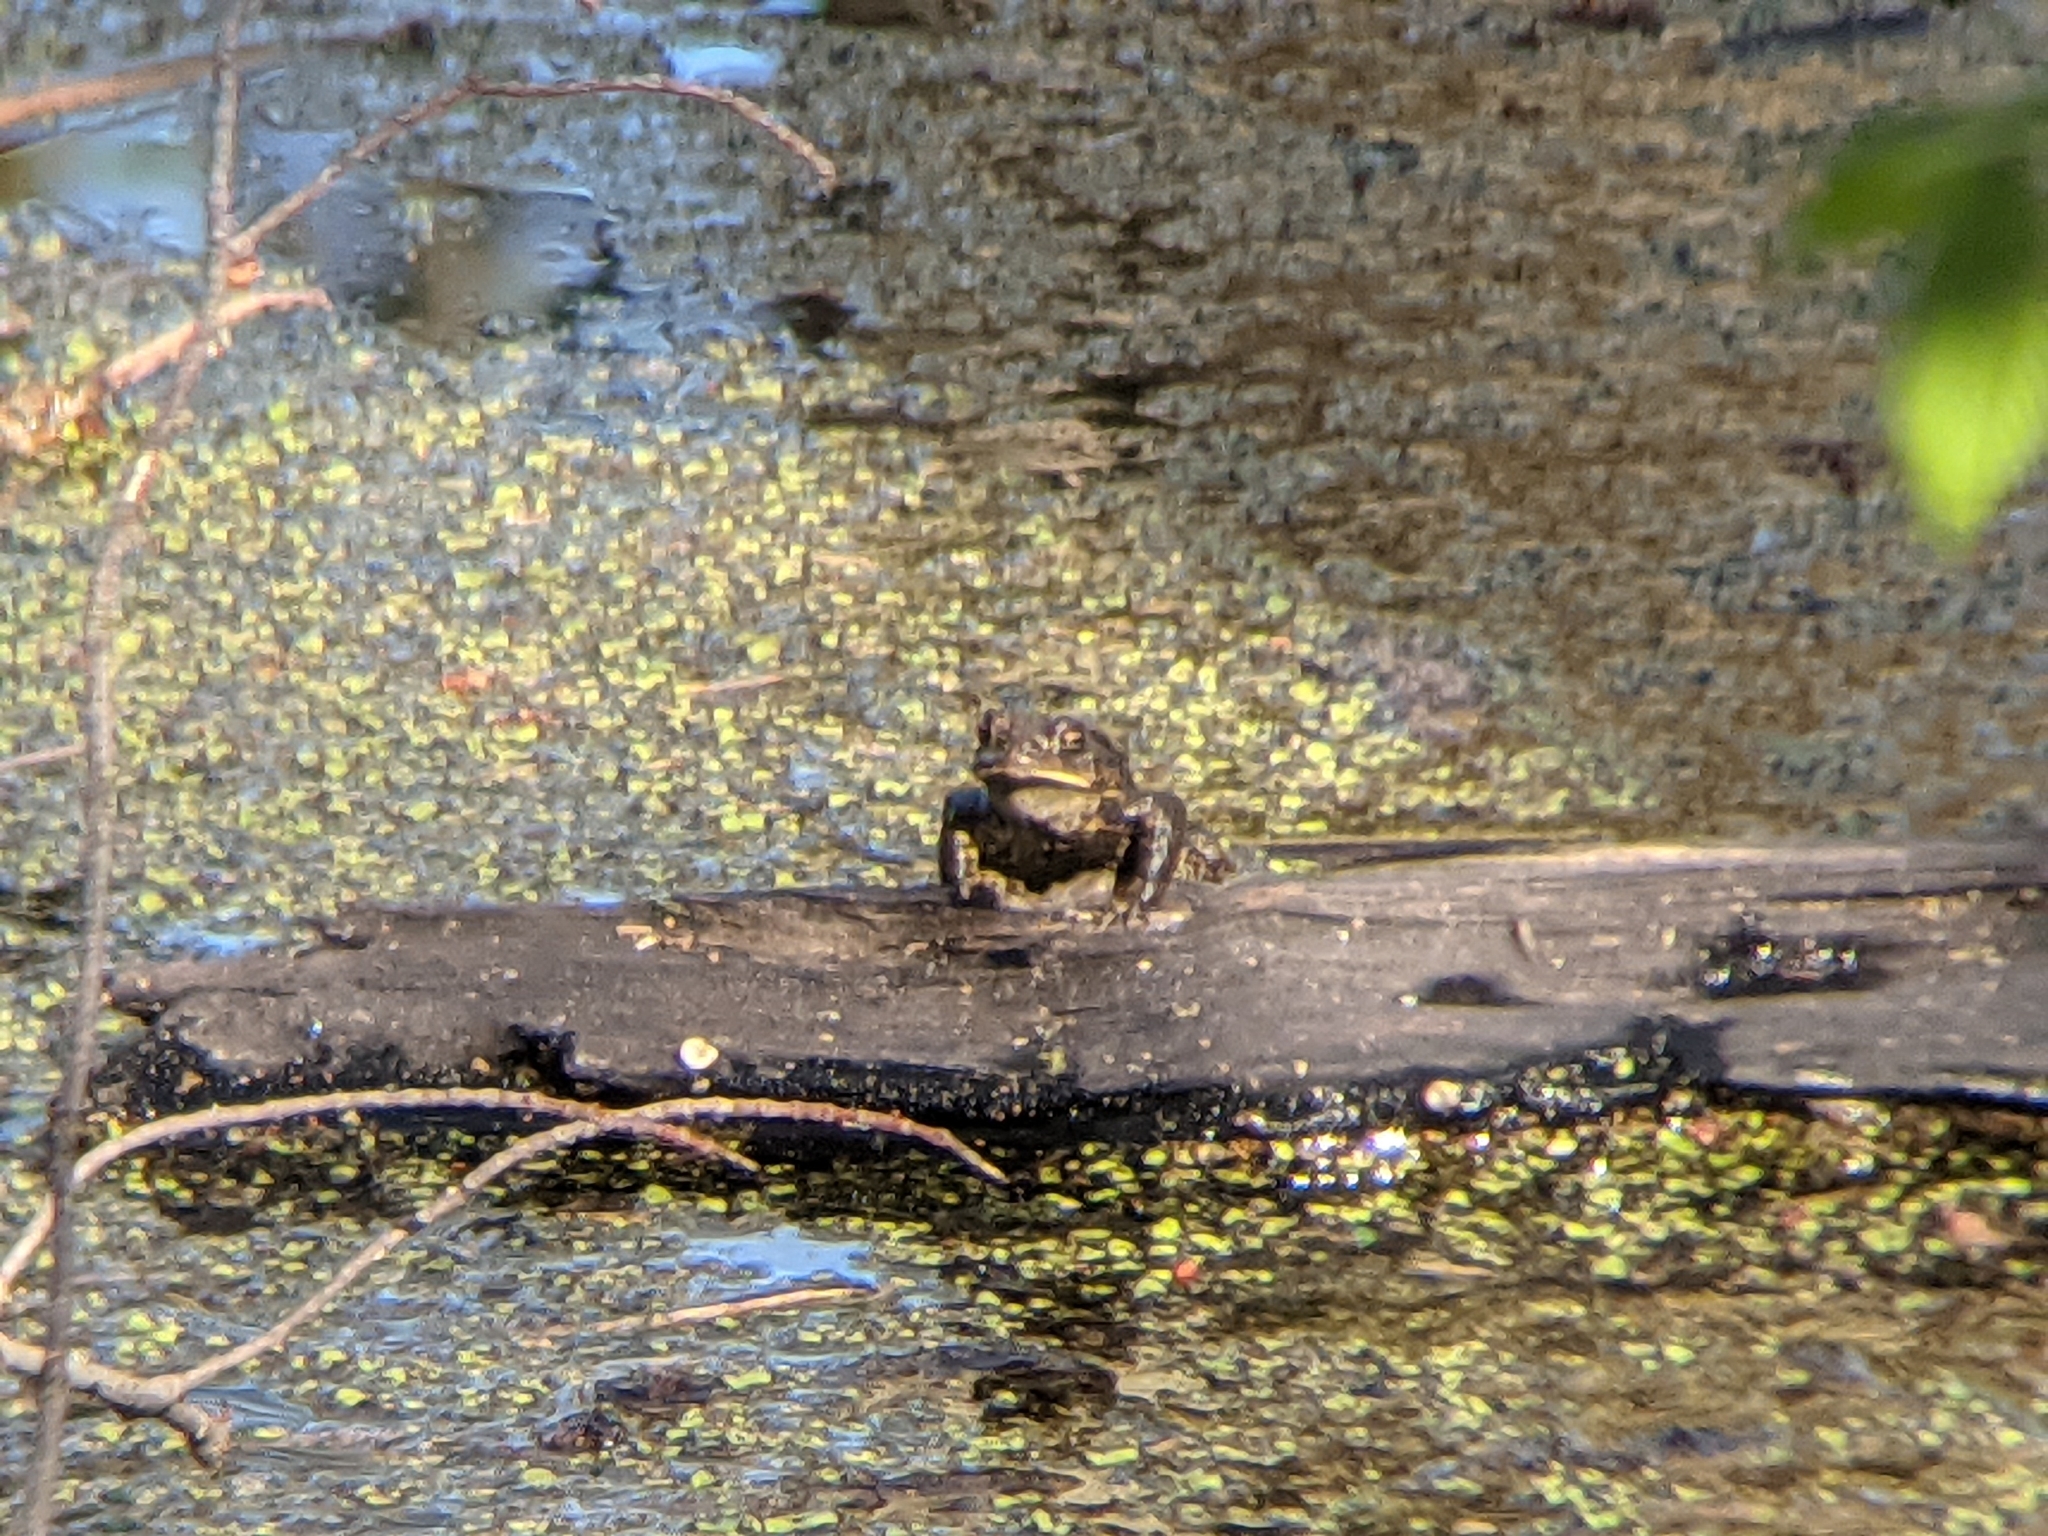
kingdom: Animalia
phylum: Chordata
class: Amphibia
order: Anura
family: Bufonidae
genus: Anaxyrus
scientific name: Anaxyrus americanus
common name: American toad
